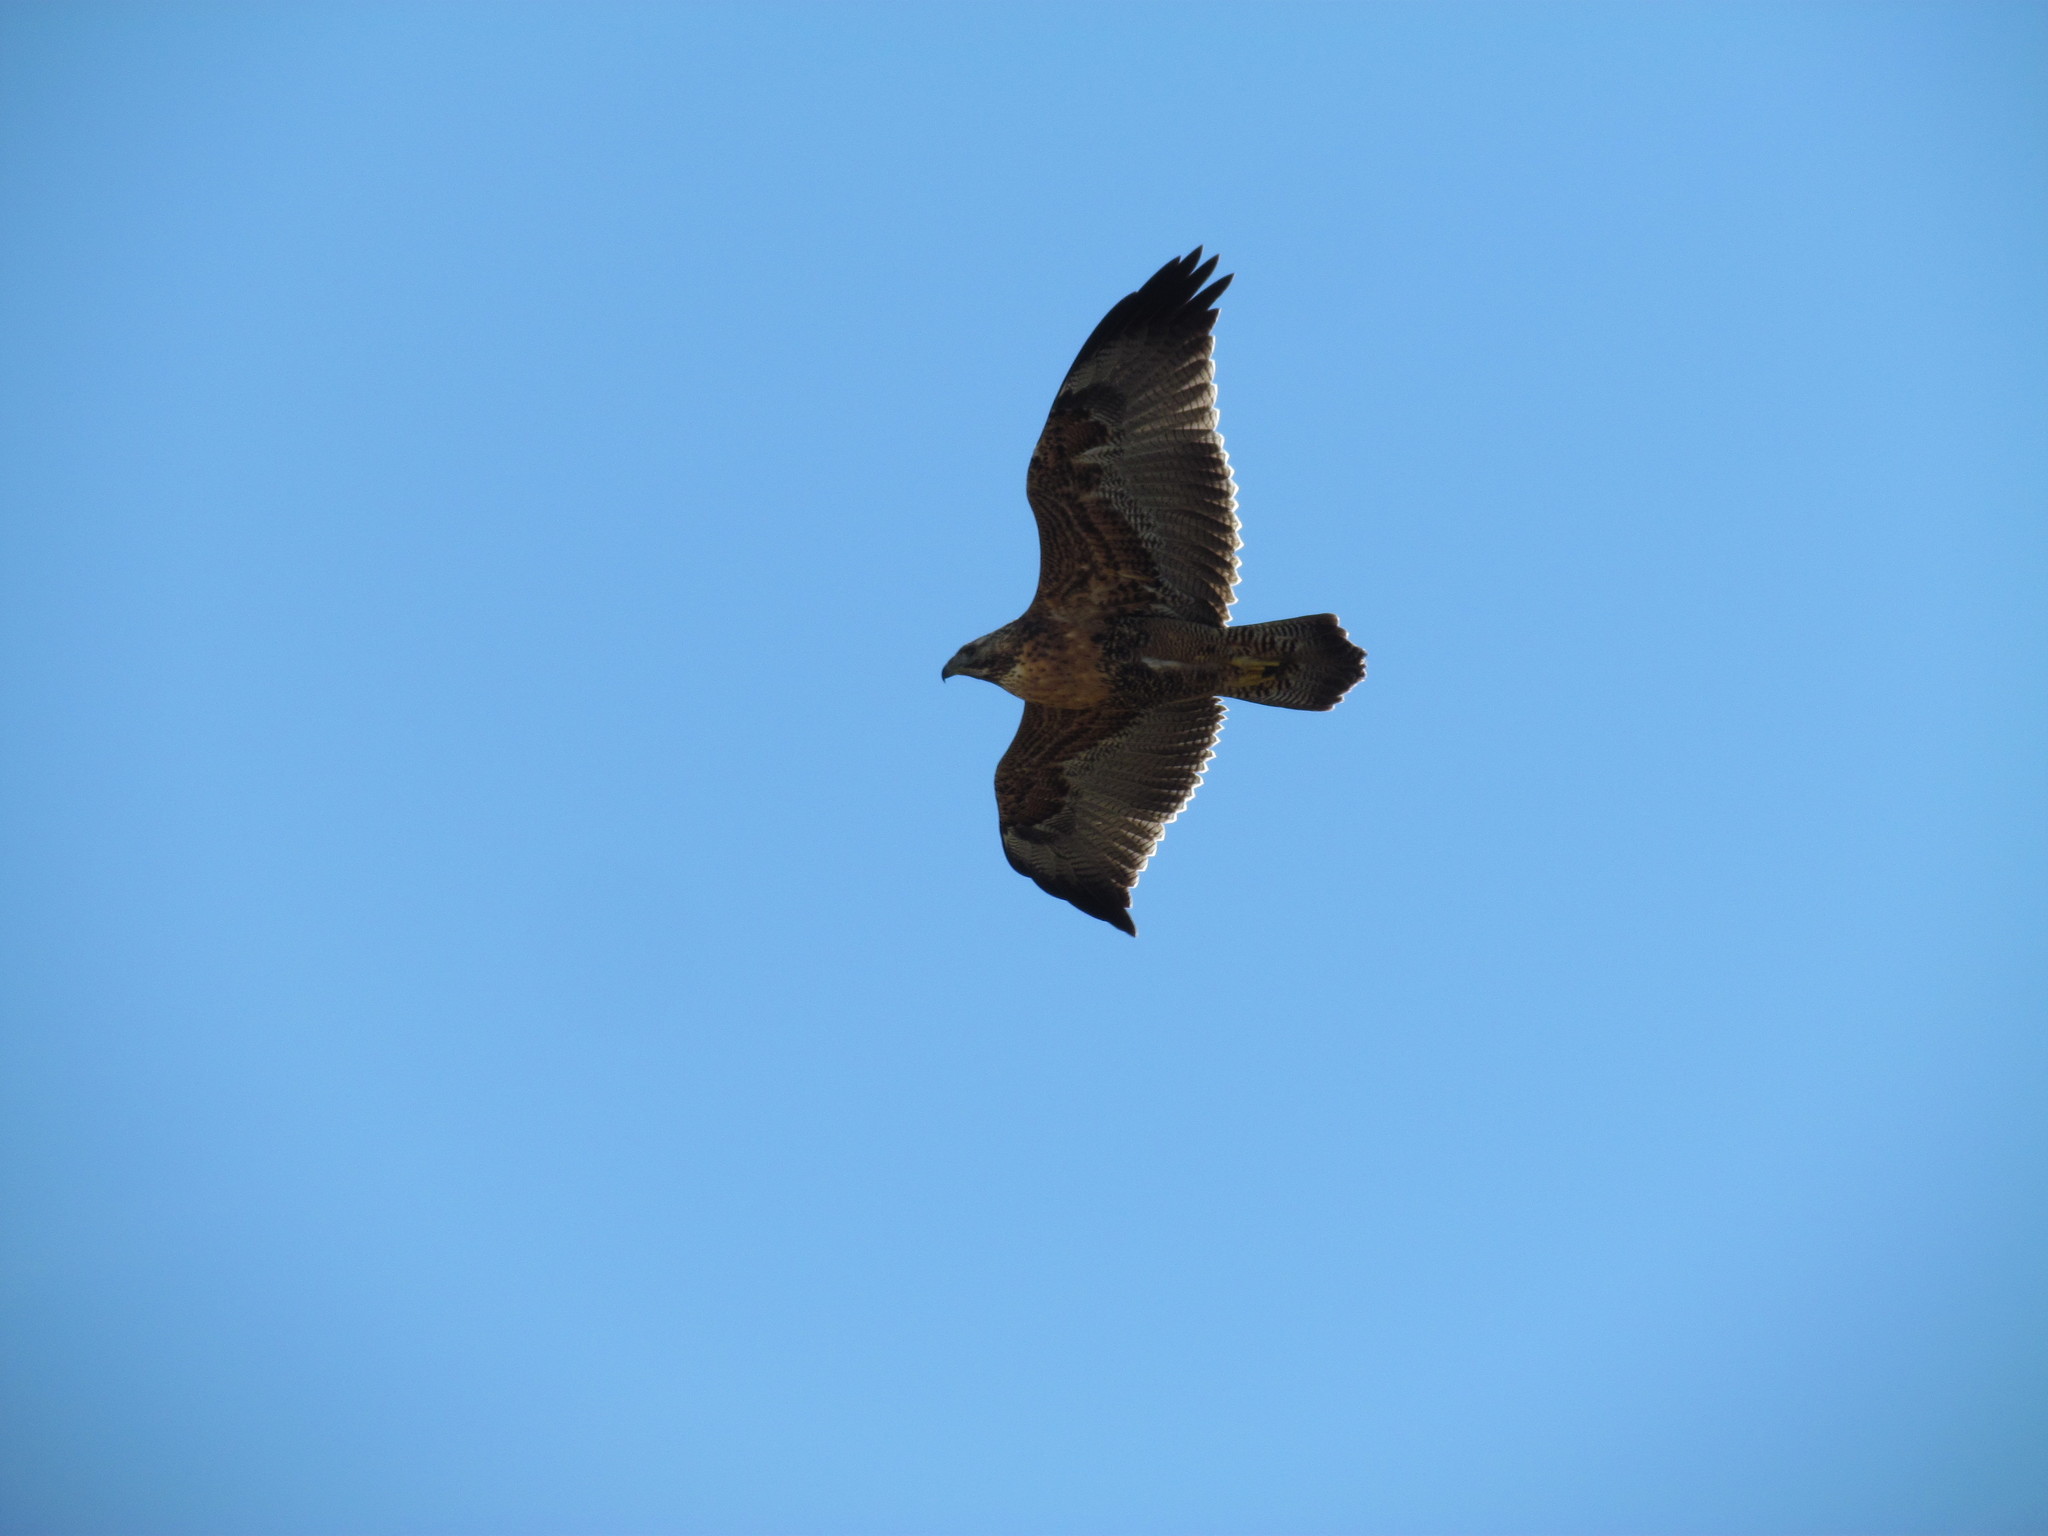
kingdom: Animalia
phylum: Chordata
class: Aves
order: Accipitriformes
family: Accipitridae
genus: Geranoaetus
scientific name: Geranoaetus melanoleucus
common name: Black-chested buzzard-eagle
